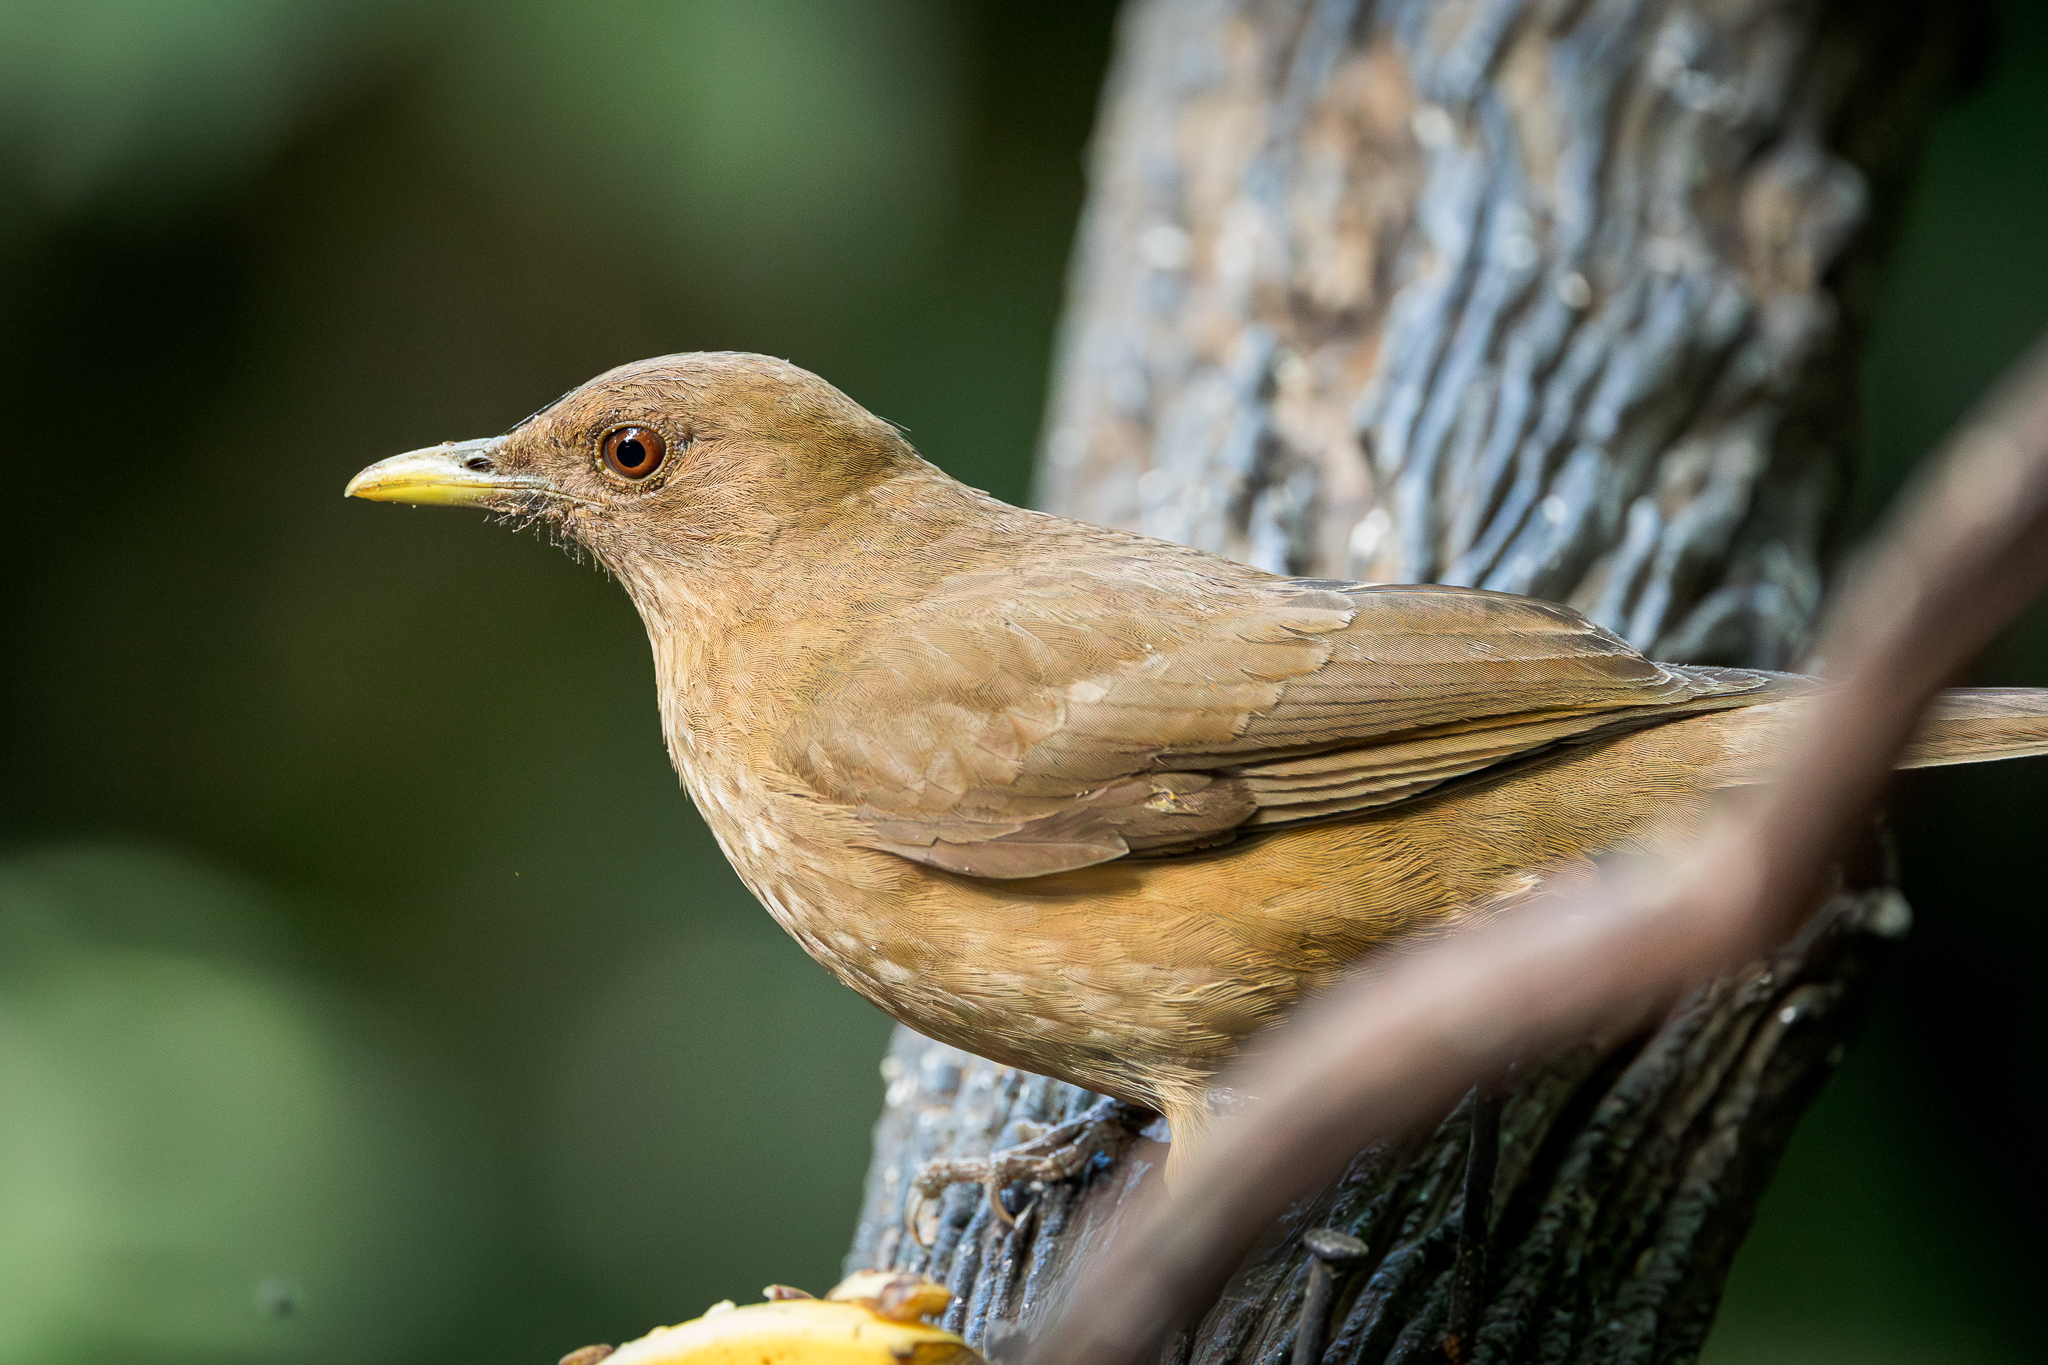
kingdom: Animalia
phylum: Chordata
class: Aves
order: Passeriformes
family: Turdidae
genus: Turdus
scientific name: Turdus grayi
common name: Clay-colored thrush
